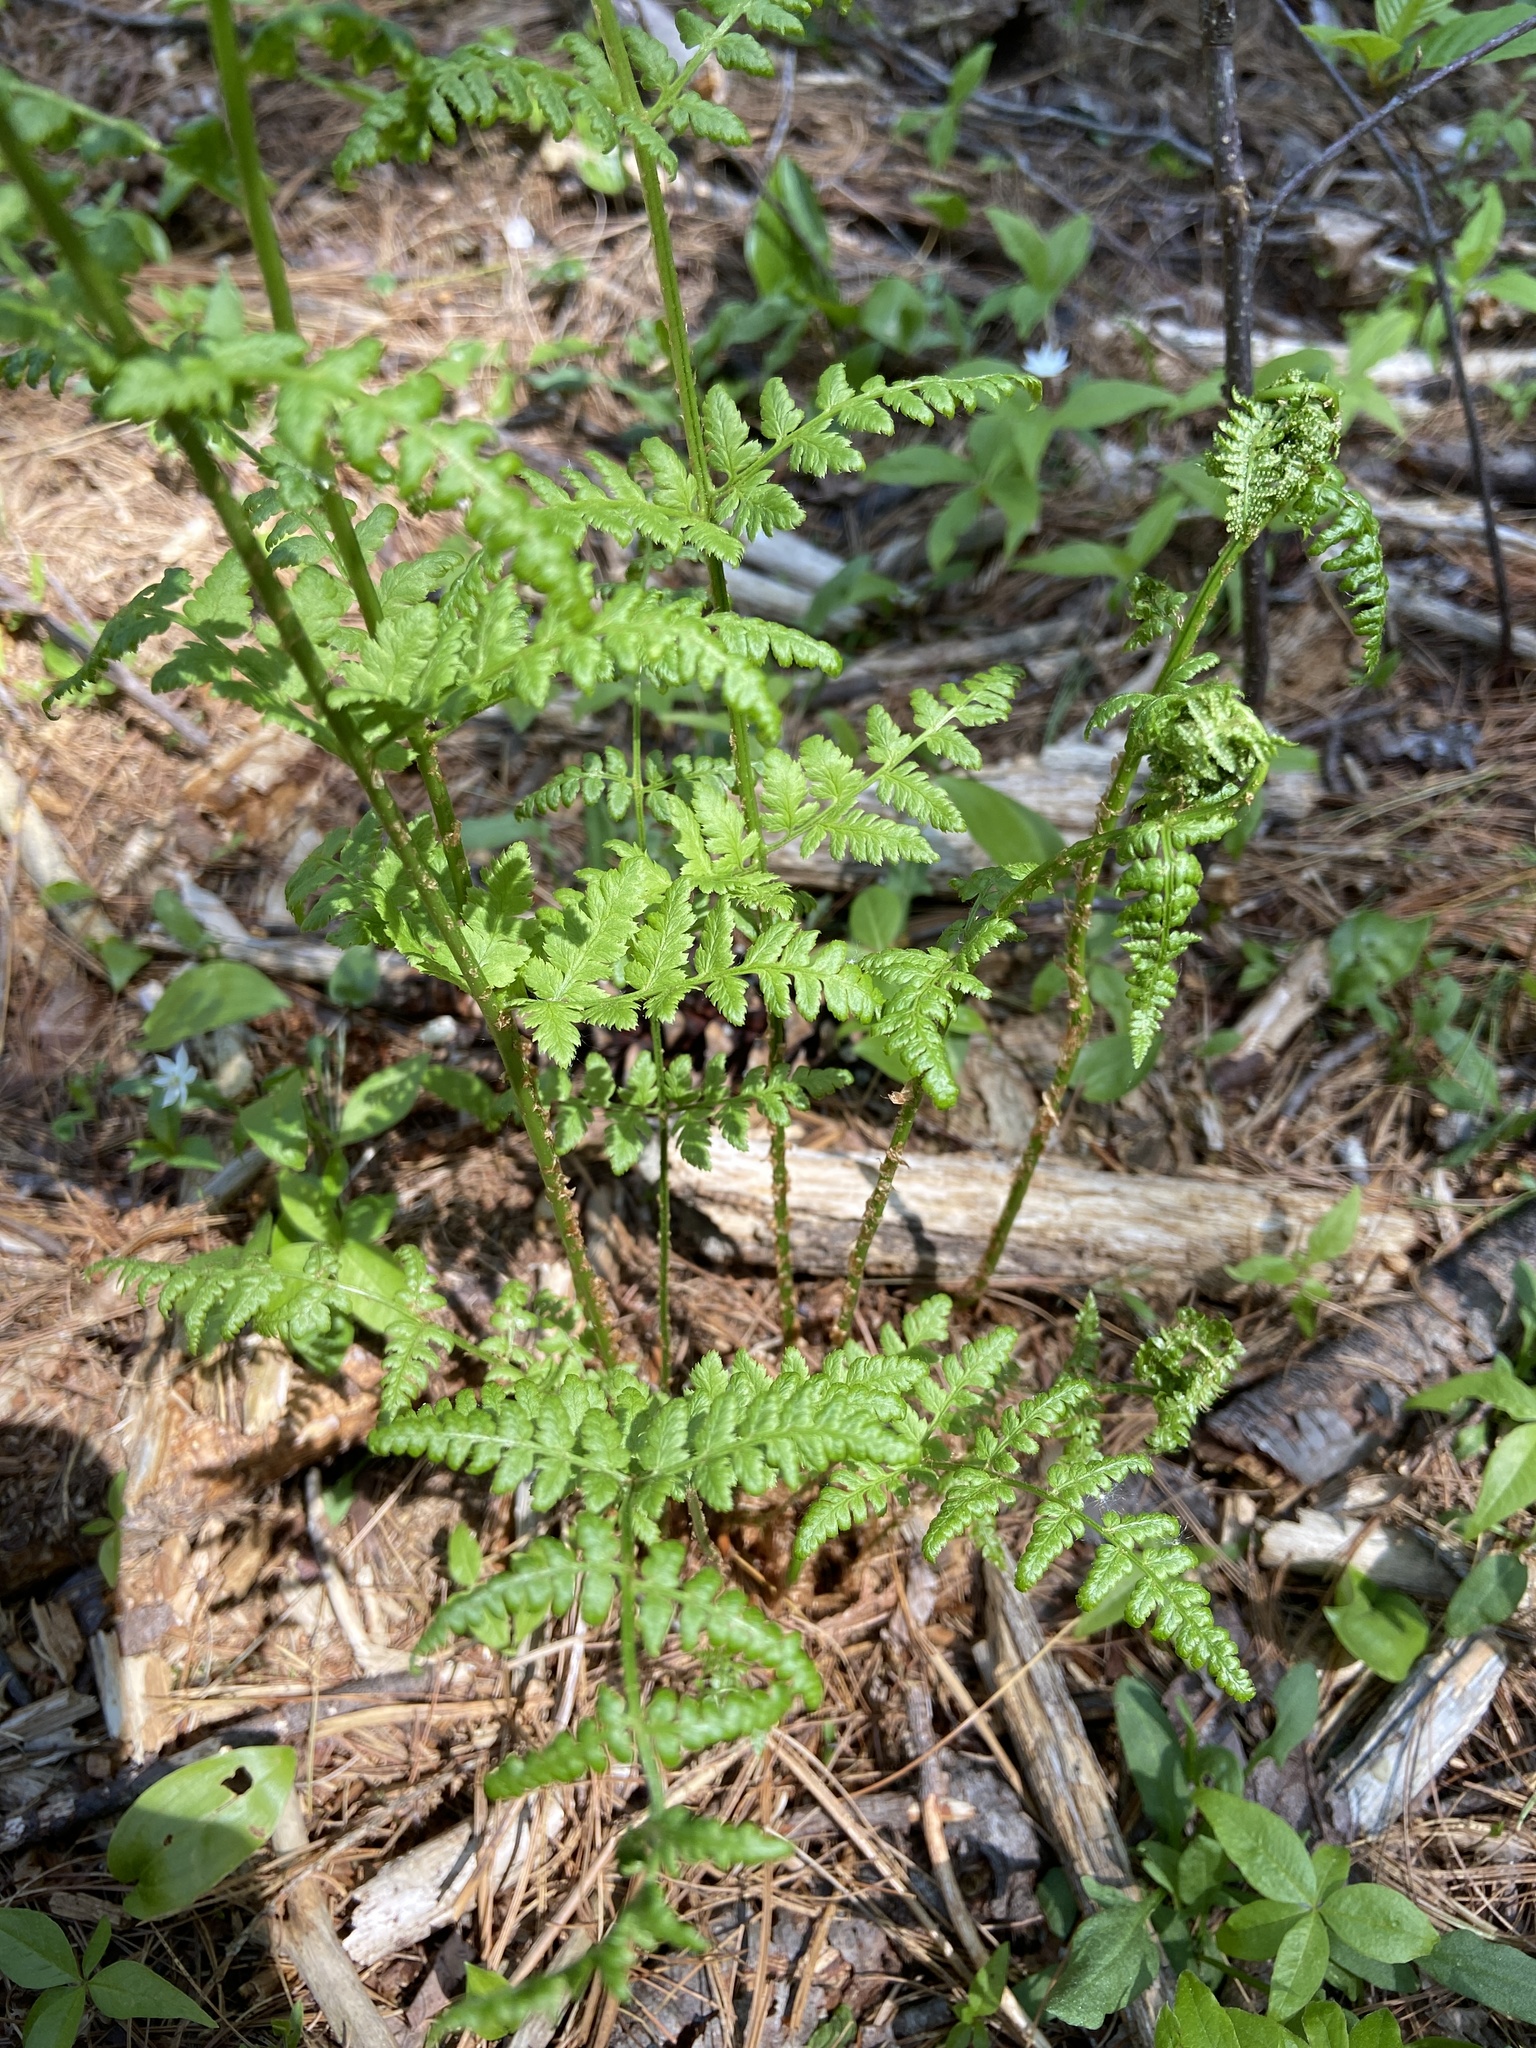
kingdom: Plantae
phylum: Tracheophyta
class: Polypodiopsida
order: Polypodiales
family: Dryopteridaceae
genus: Dryopteris
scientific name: Dryopteris intermedia
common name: Evergreen wood fern
